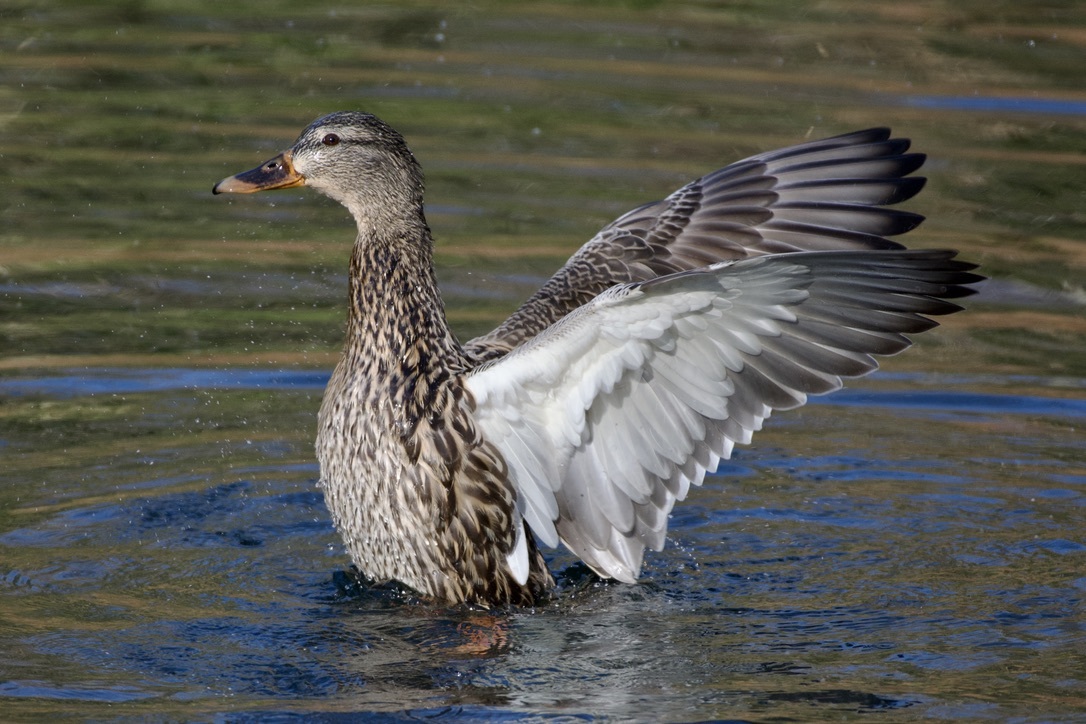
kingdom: Animalia
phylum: Chordata
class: Aves
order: Anseriformes
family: Anatidae
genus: Anas
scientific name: Anas platyrhynchos
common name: Mallard
